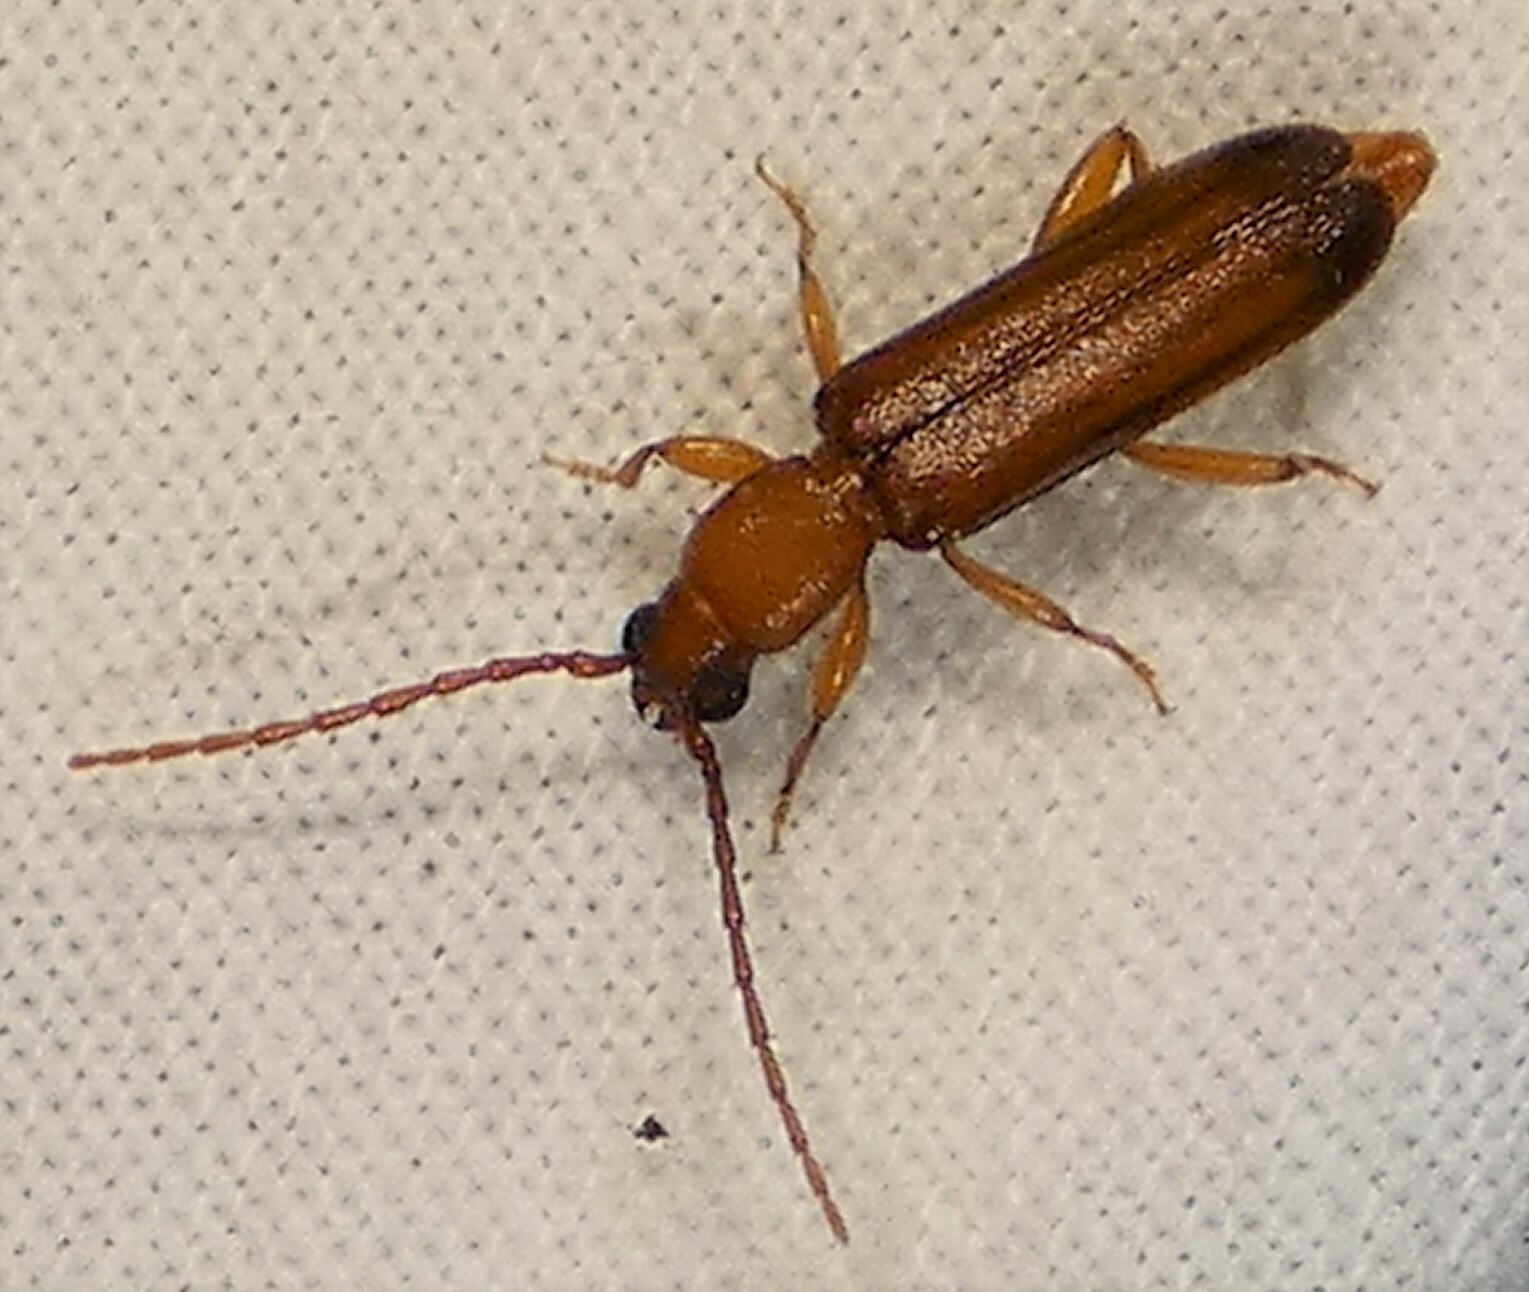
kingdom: Animalia
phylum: Arthropoda
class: Insecta
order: Coleoptera
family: Cerambycidae
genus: Smodicum
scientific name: Smodicum cucujiforme
